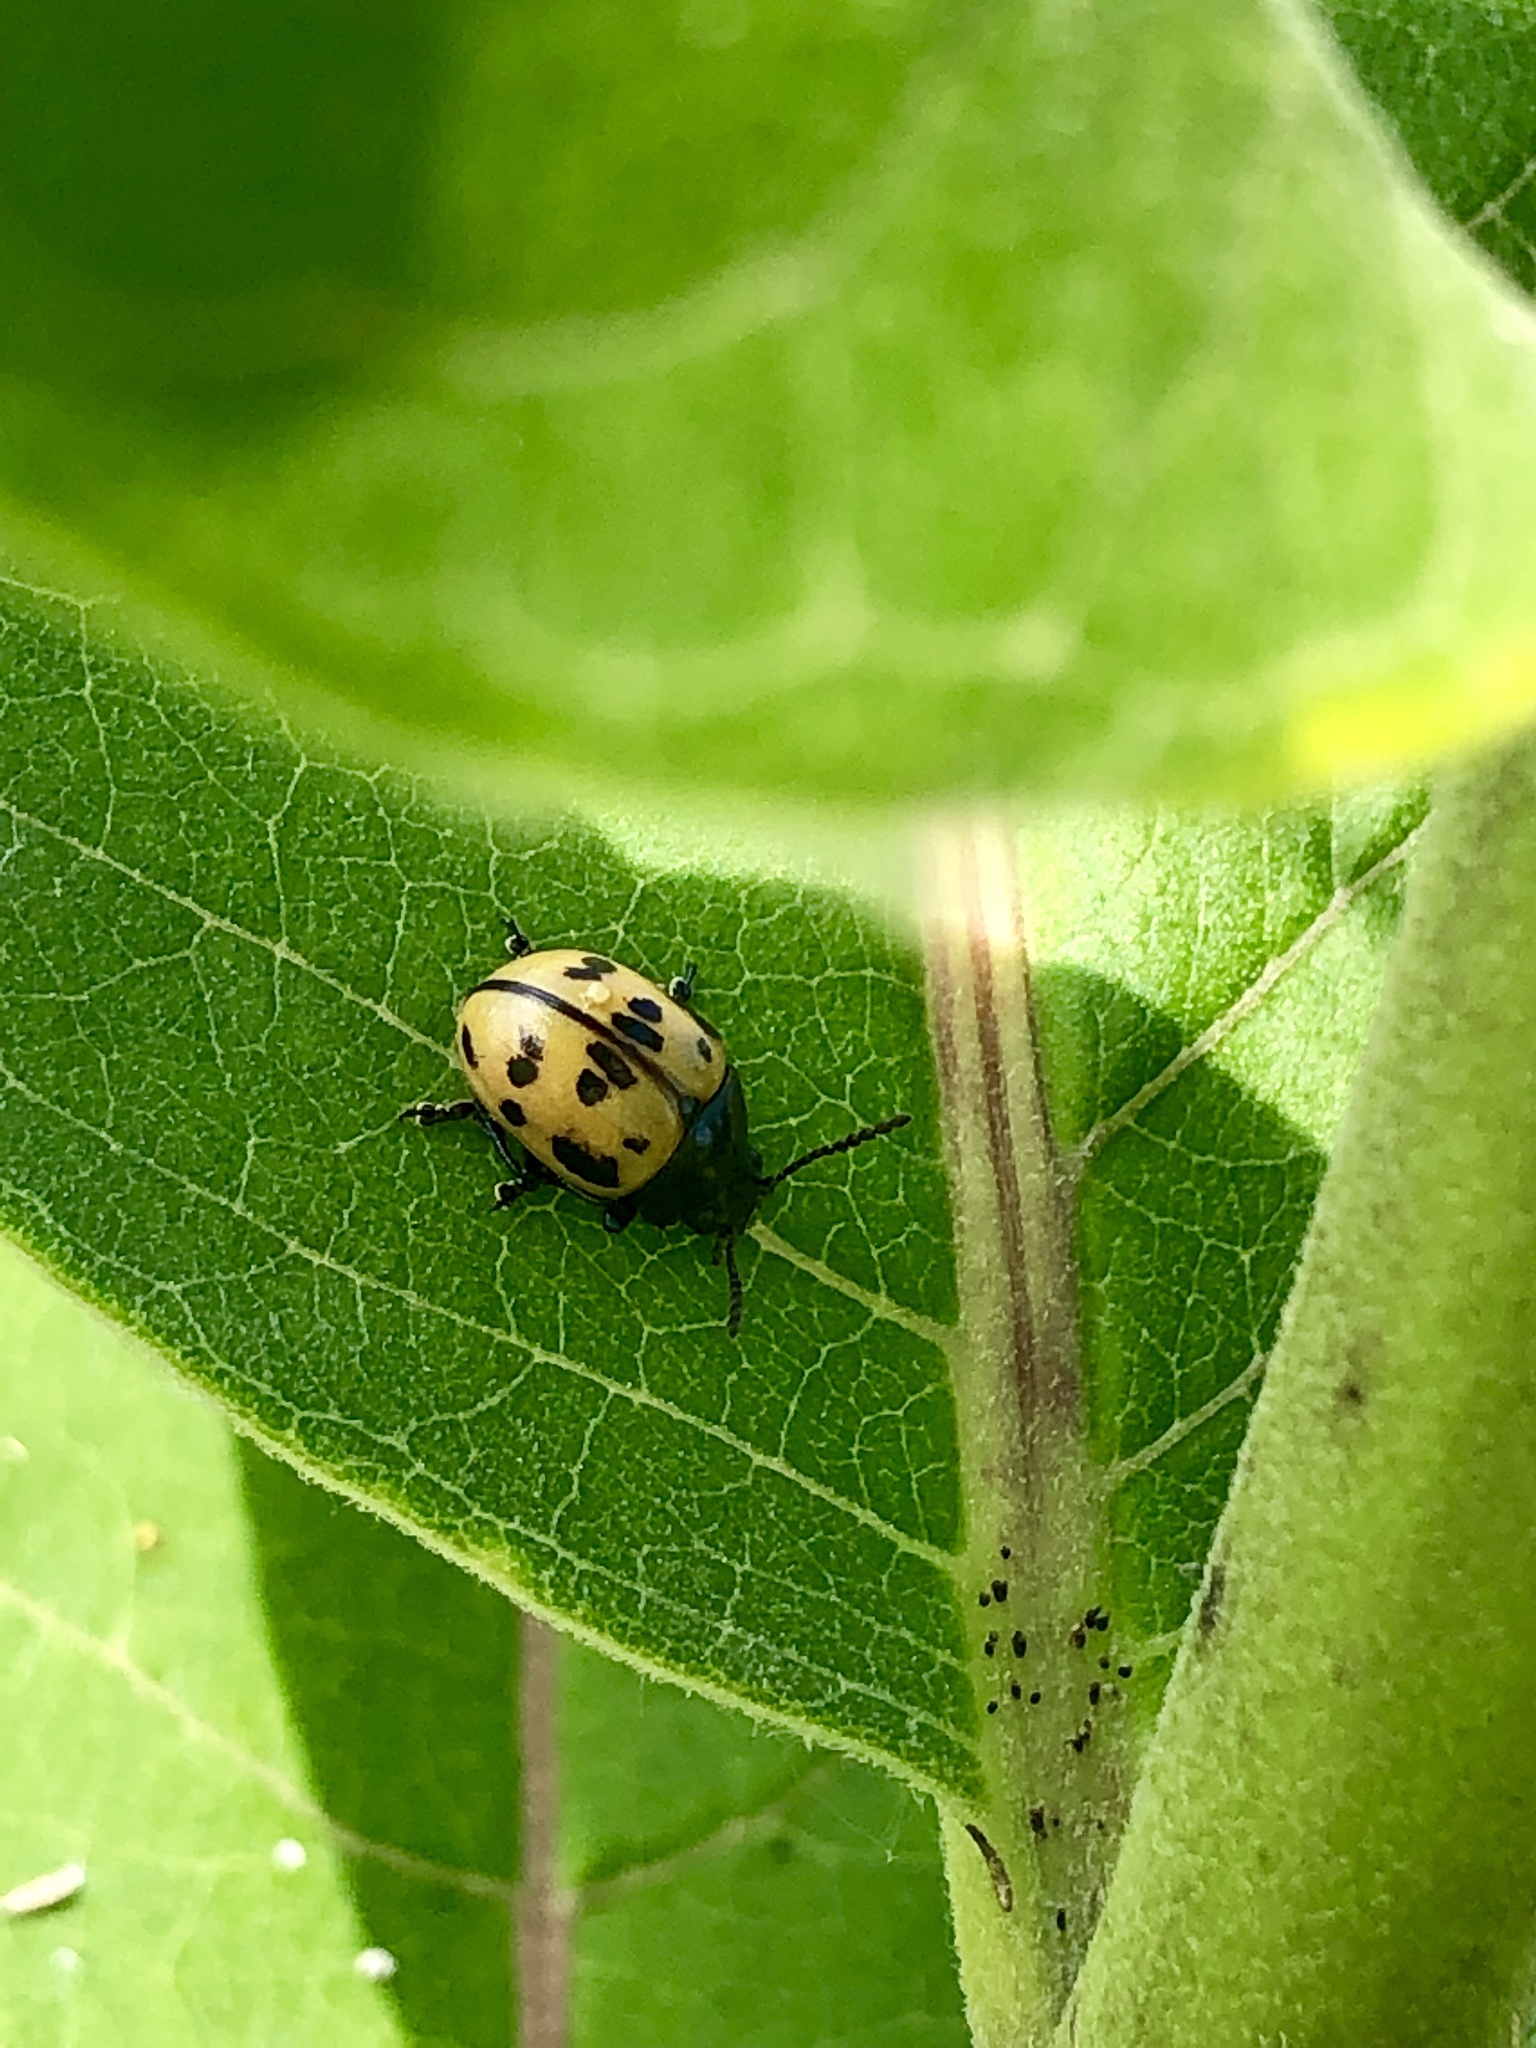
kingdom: Animalia
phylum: Arthropoda
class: Insecta
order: Coleoptera
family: Chrysomelidae
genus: Labidomera
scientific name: Labidomera clivicollis
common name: Swamp milkweed leaf beetle
